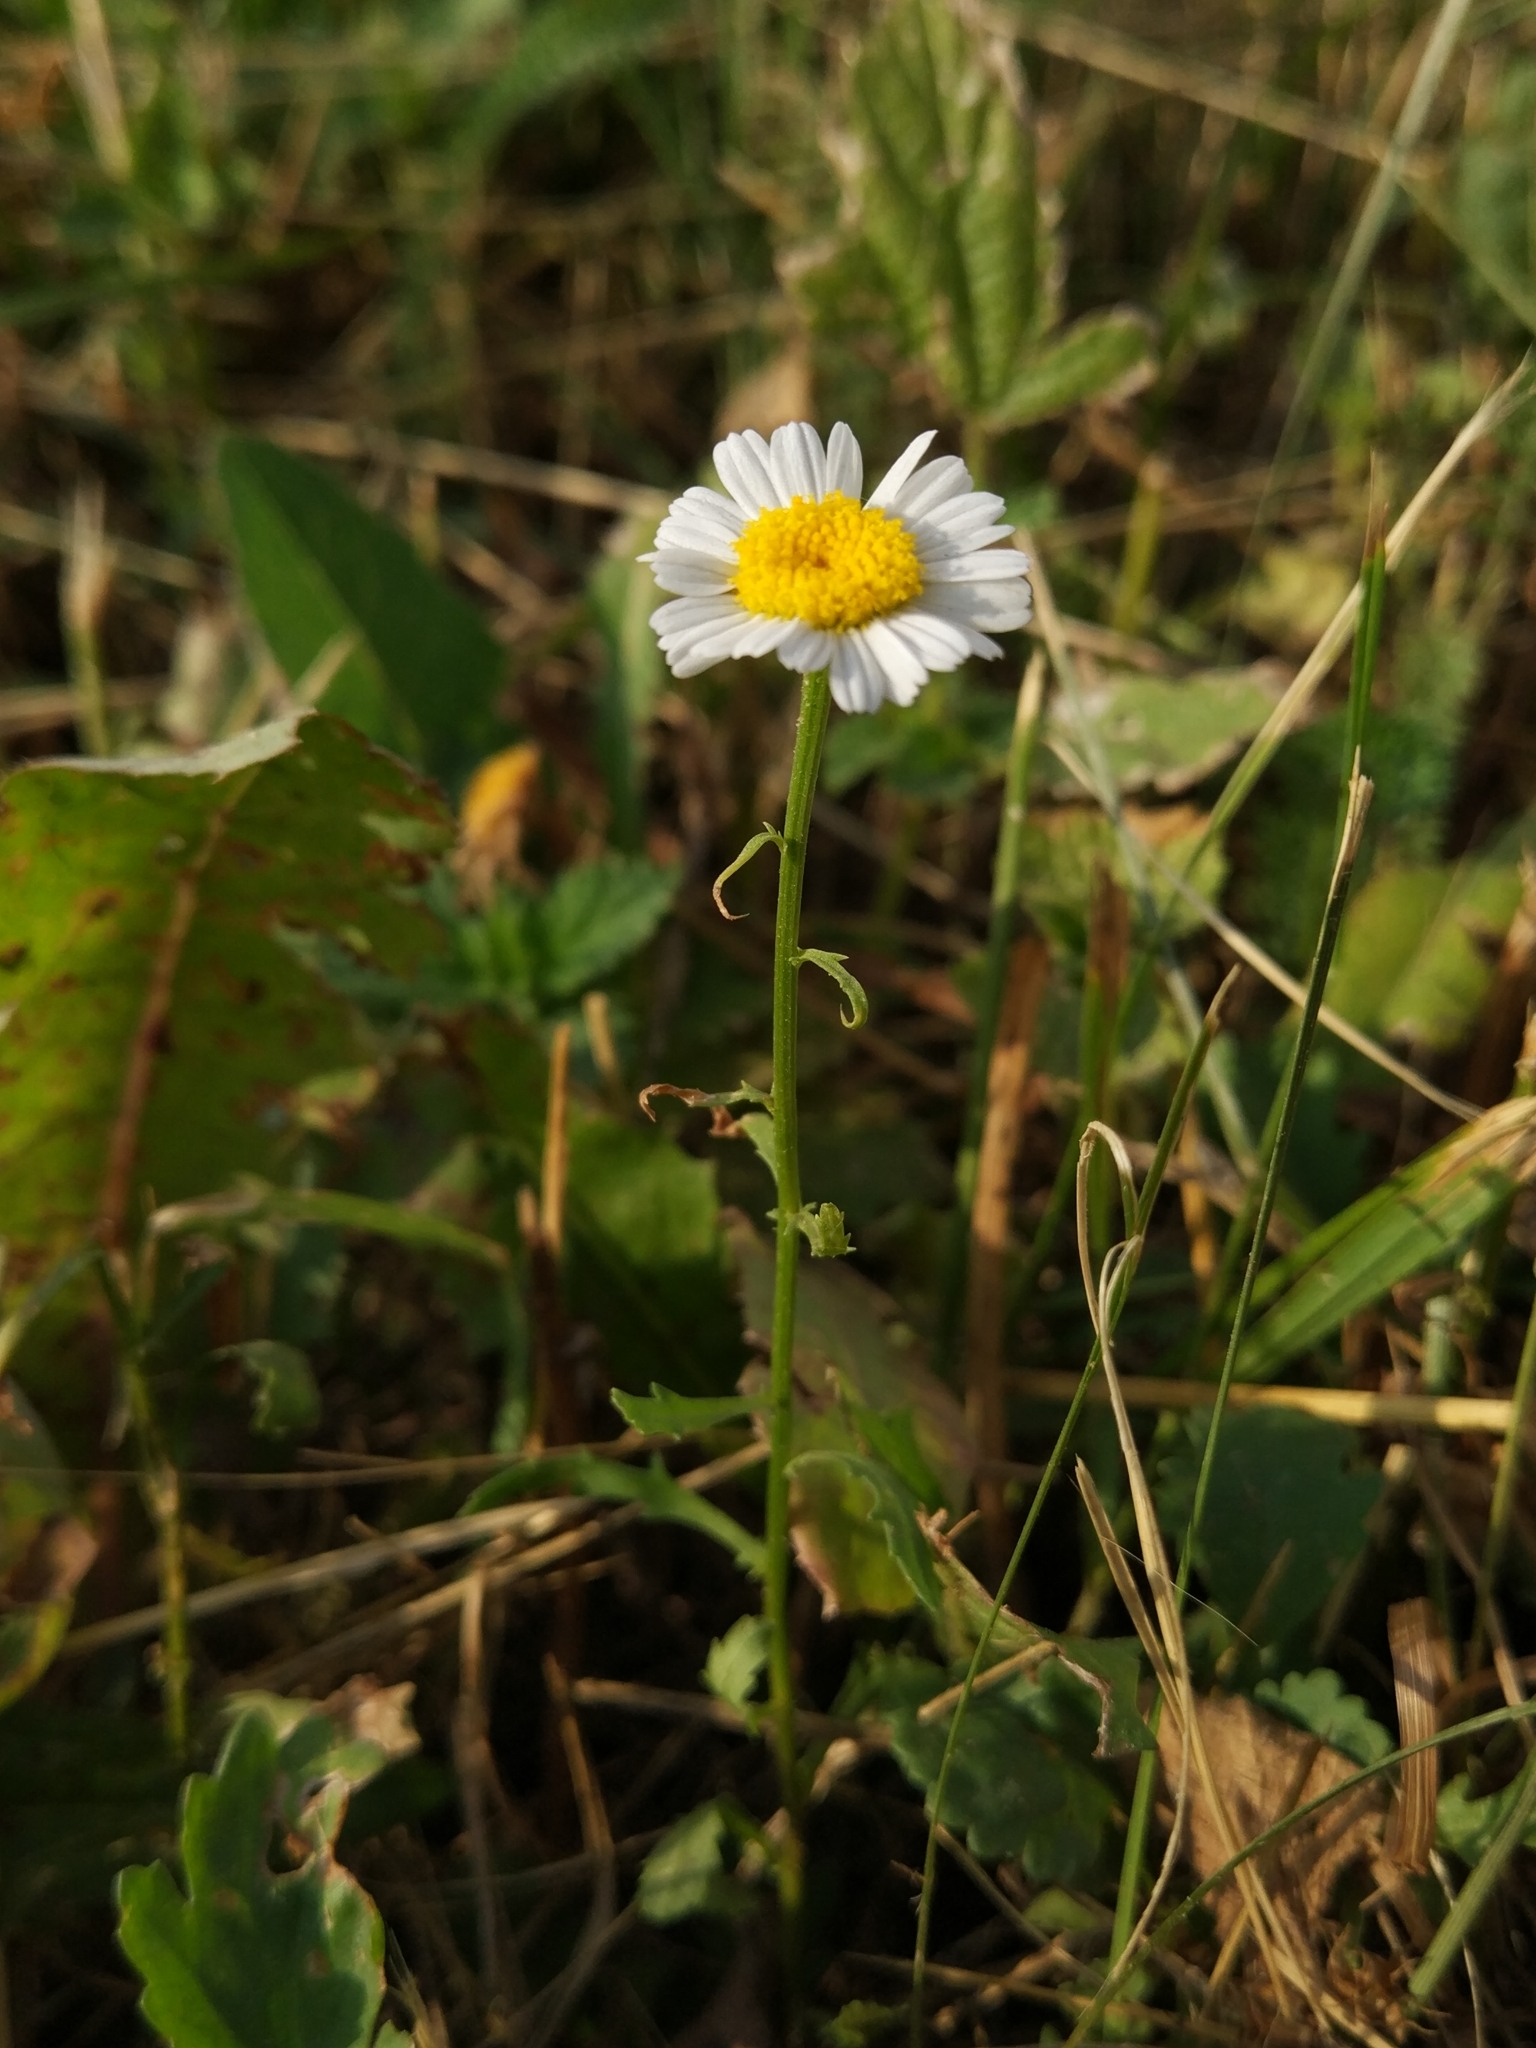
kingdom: Plantae
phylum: Tracheophyta
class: Magnoliopsida
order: Asterales
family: Asteraceae
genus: Leucanthemum
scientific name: Leucanthemum vulgare
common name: Oxeye daisy
